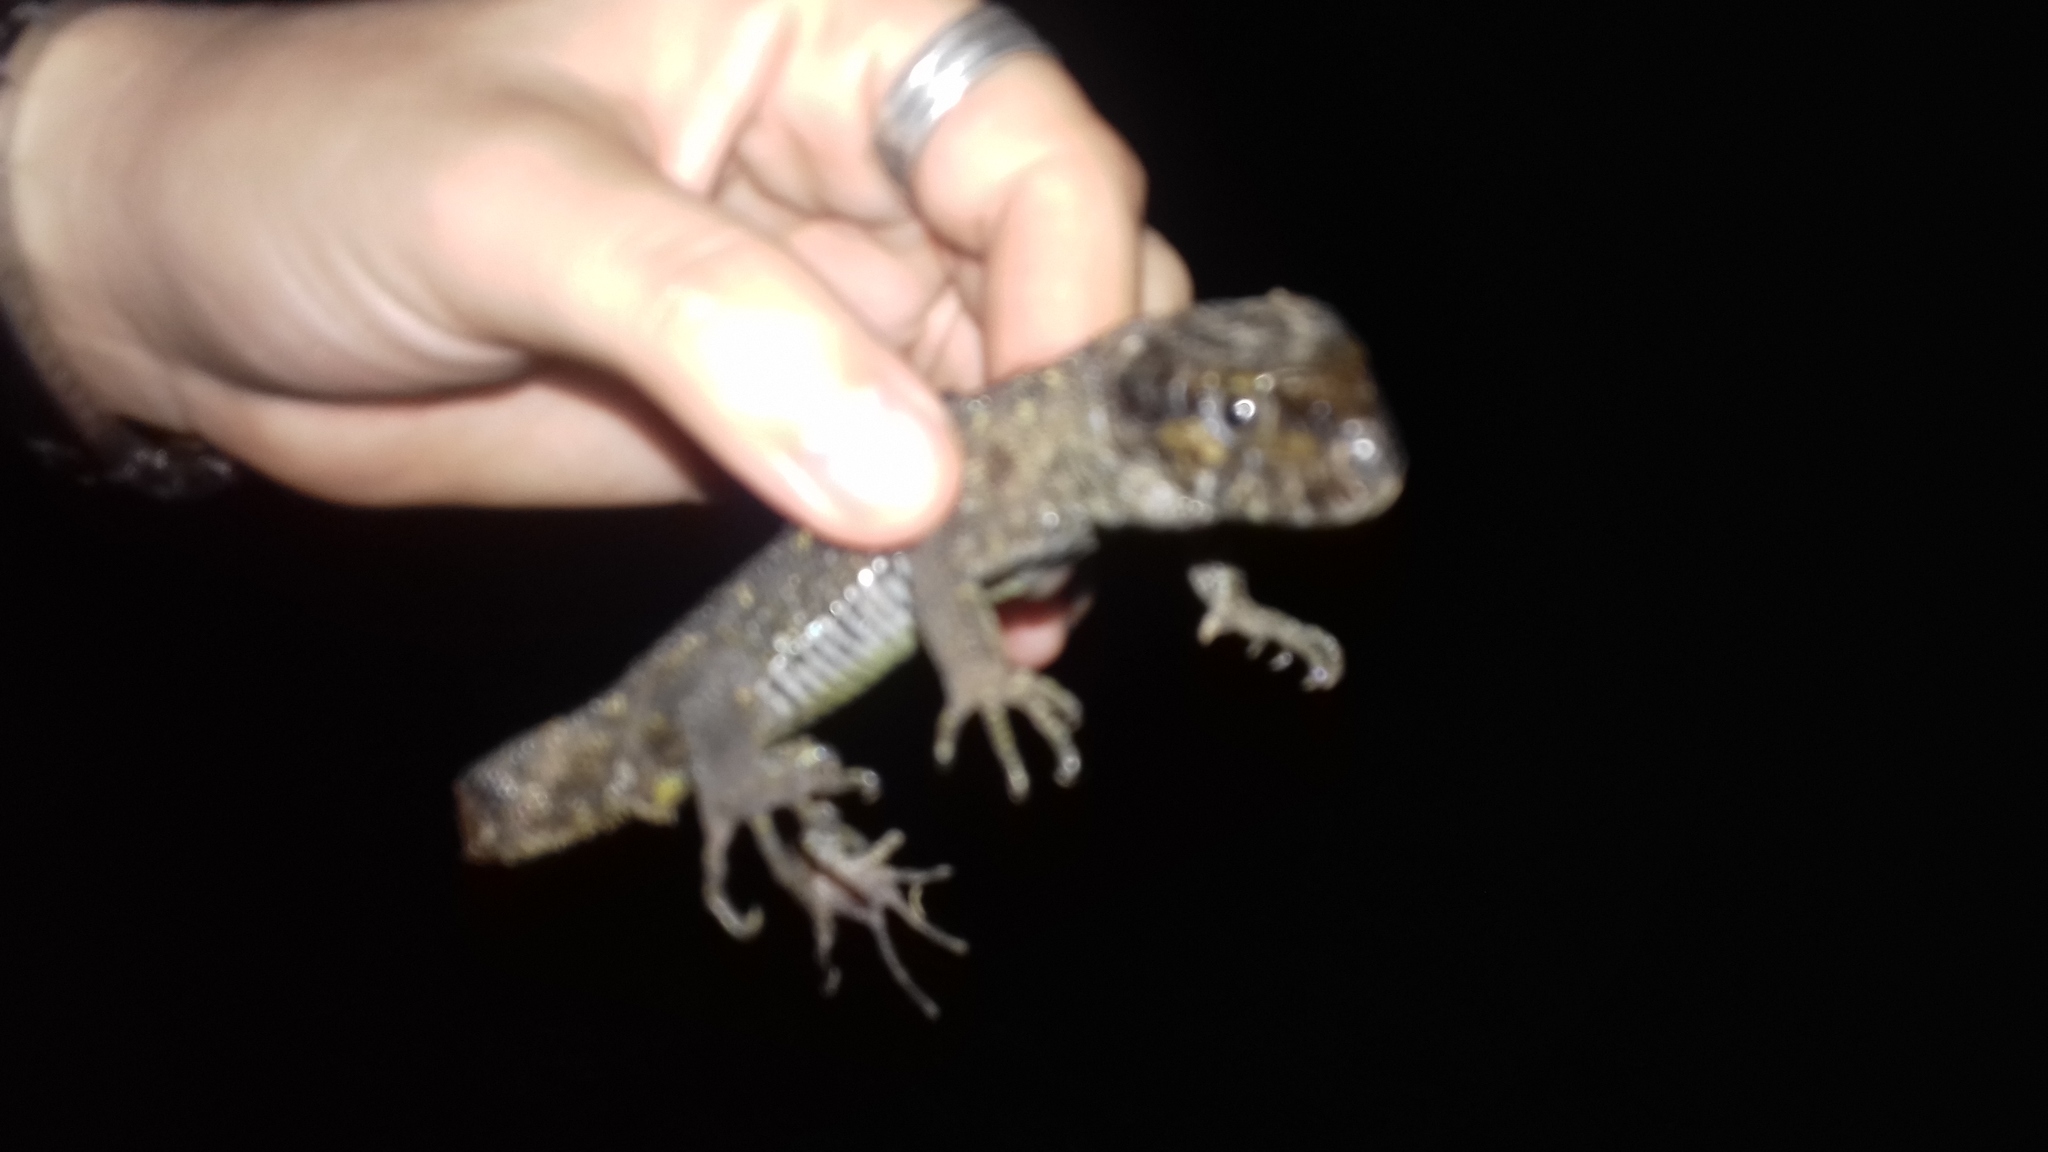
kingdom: Animalia
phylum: Chordata
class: Squamata
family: Xantusiidae
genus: Lepidophyma
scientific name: Lepidophyma sylvaticum
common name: Madrean tropical night lizard
